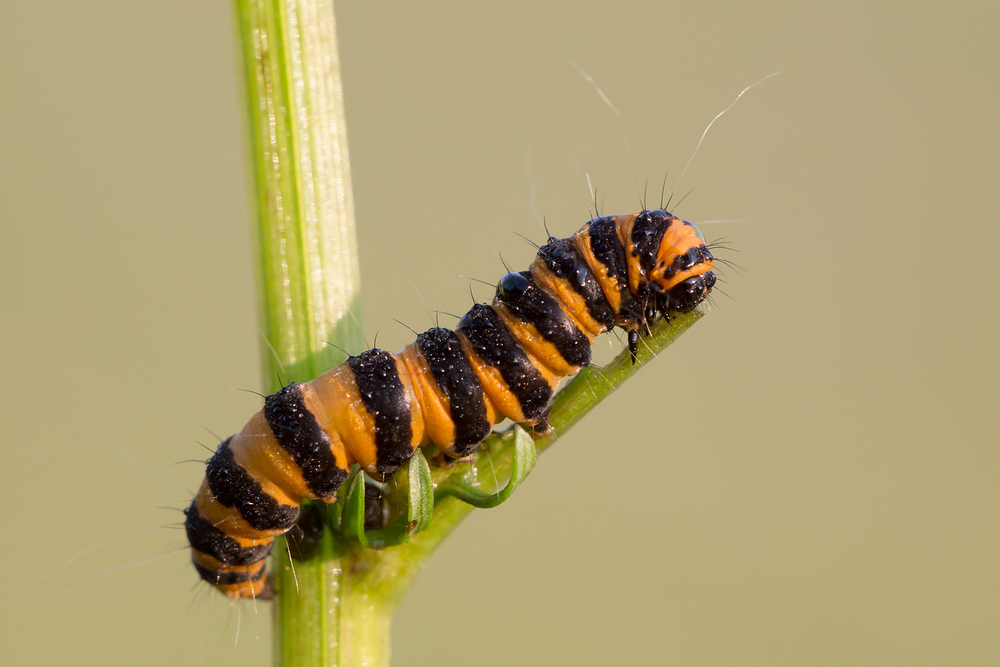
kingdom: Animalia
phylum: Arthropoda
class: Insecta
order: Lepidoptera
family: Erebidae
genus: Tyria
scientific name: Tyria jacobaeae
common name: Cinnabar
